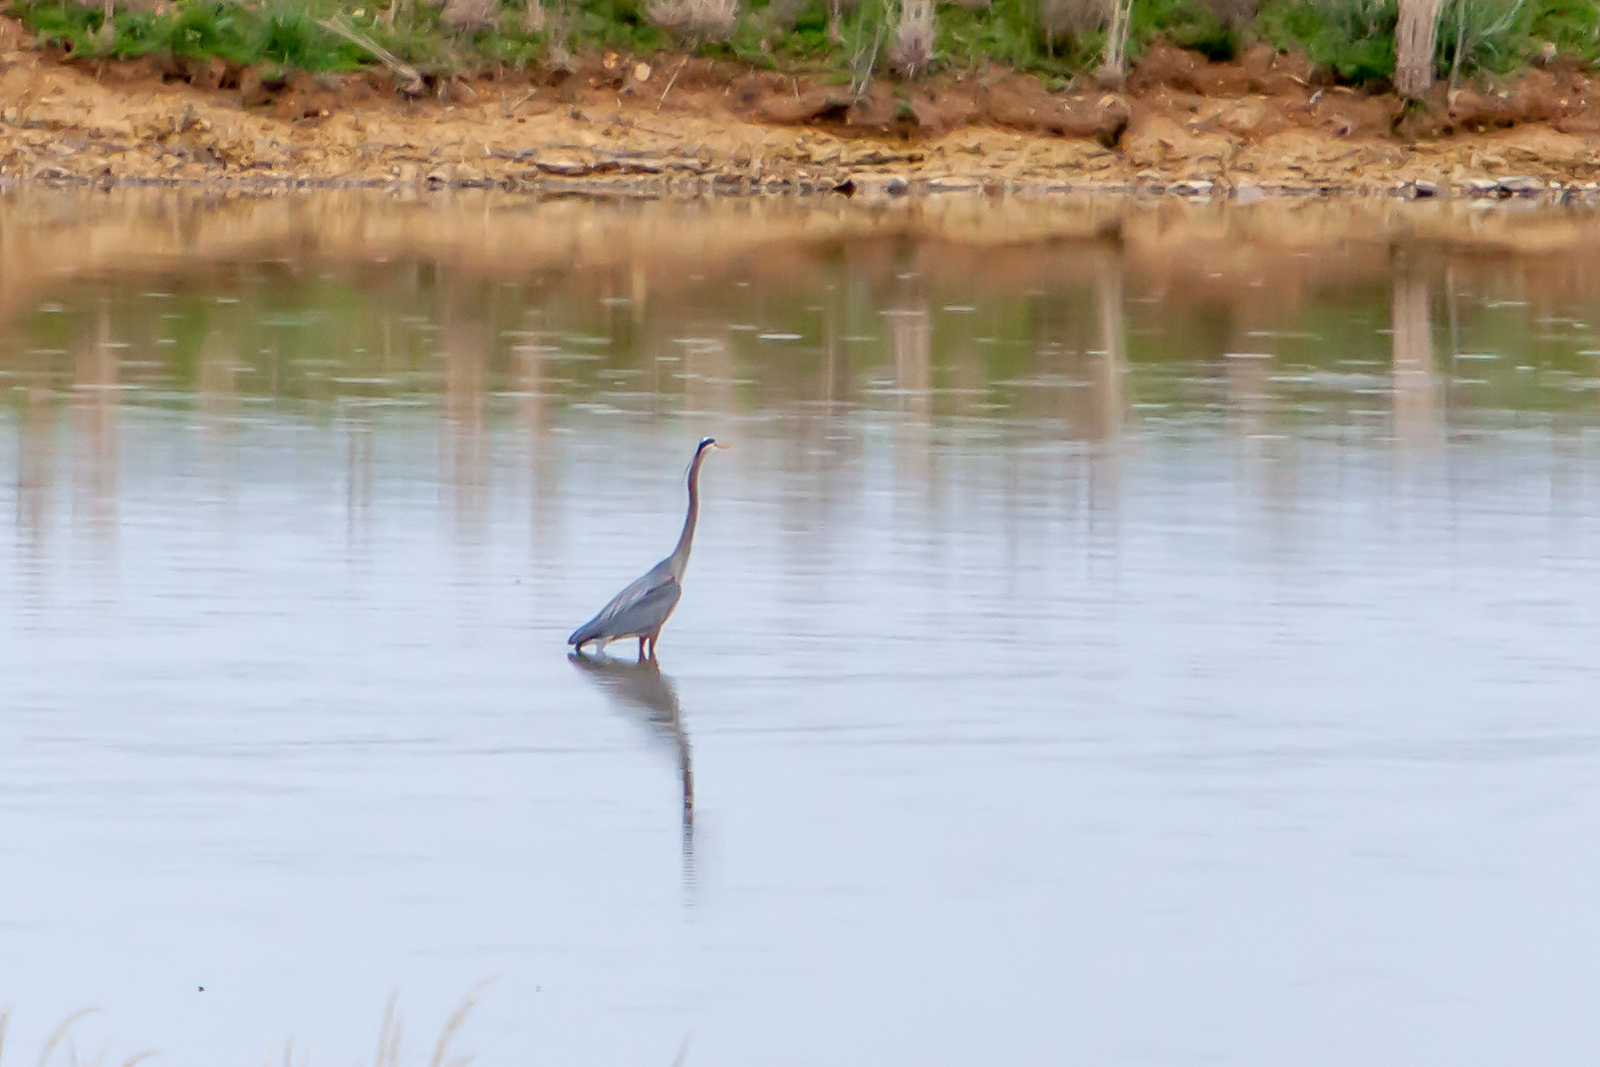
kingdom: Animalia
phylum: Chordata
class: Aves
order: Pelecaniformes
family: Ardeidae
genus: Ardea
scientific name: Ardea herodias
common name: Great blue heron
